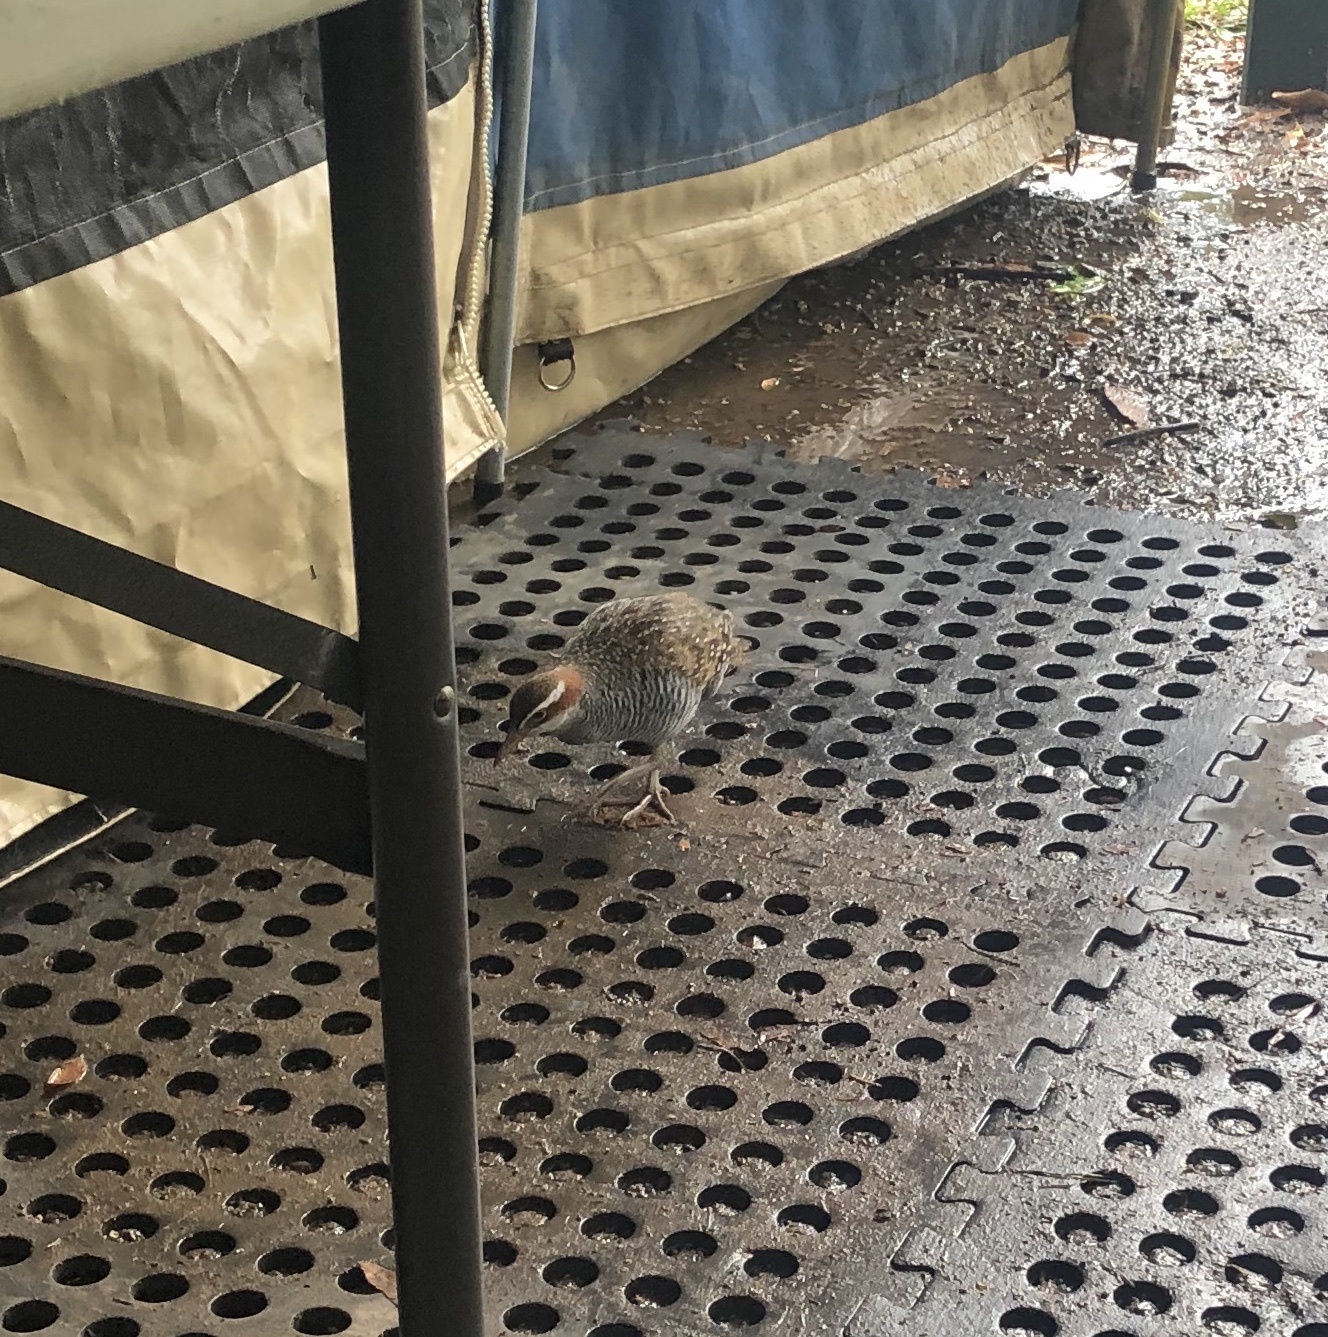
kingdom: Animalia
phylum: Chordata
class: Aves
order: Gruiformes
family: Rallidae
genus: Gallirallus
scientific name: Gallirallus philippensis
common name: Buff-banded rail
